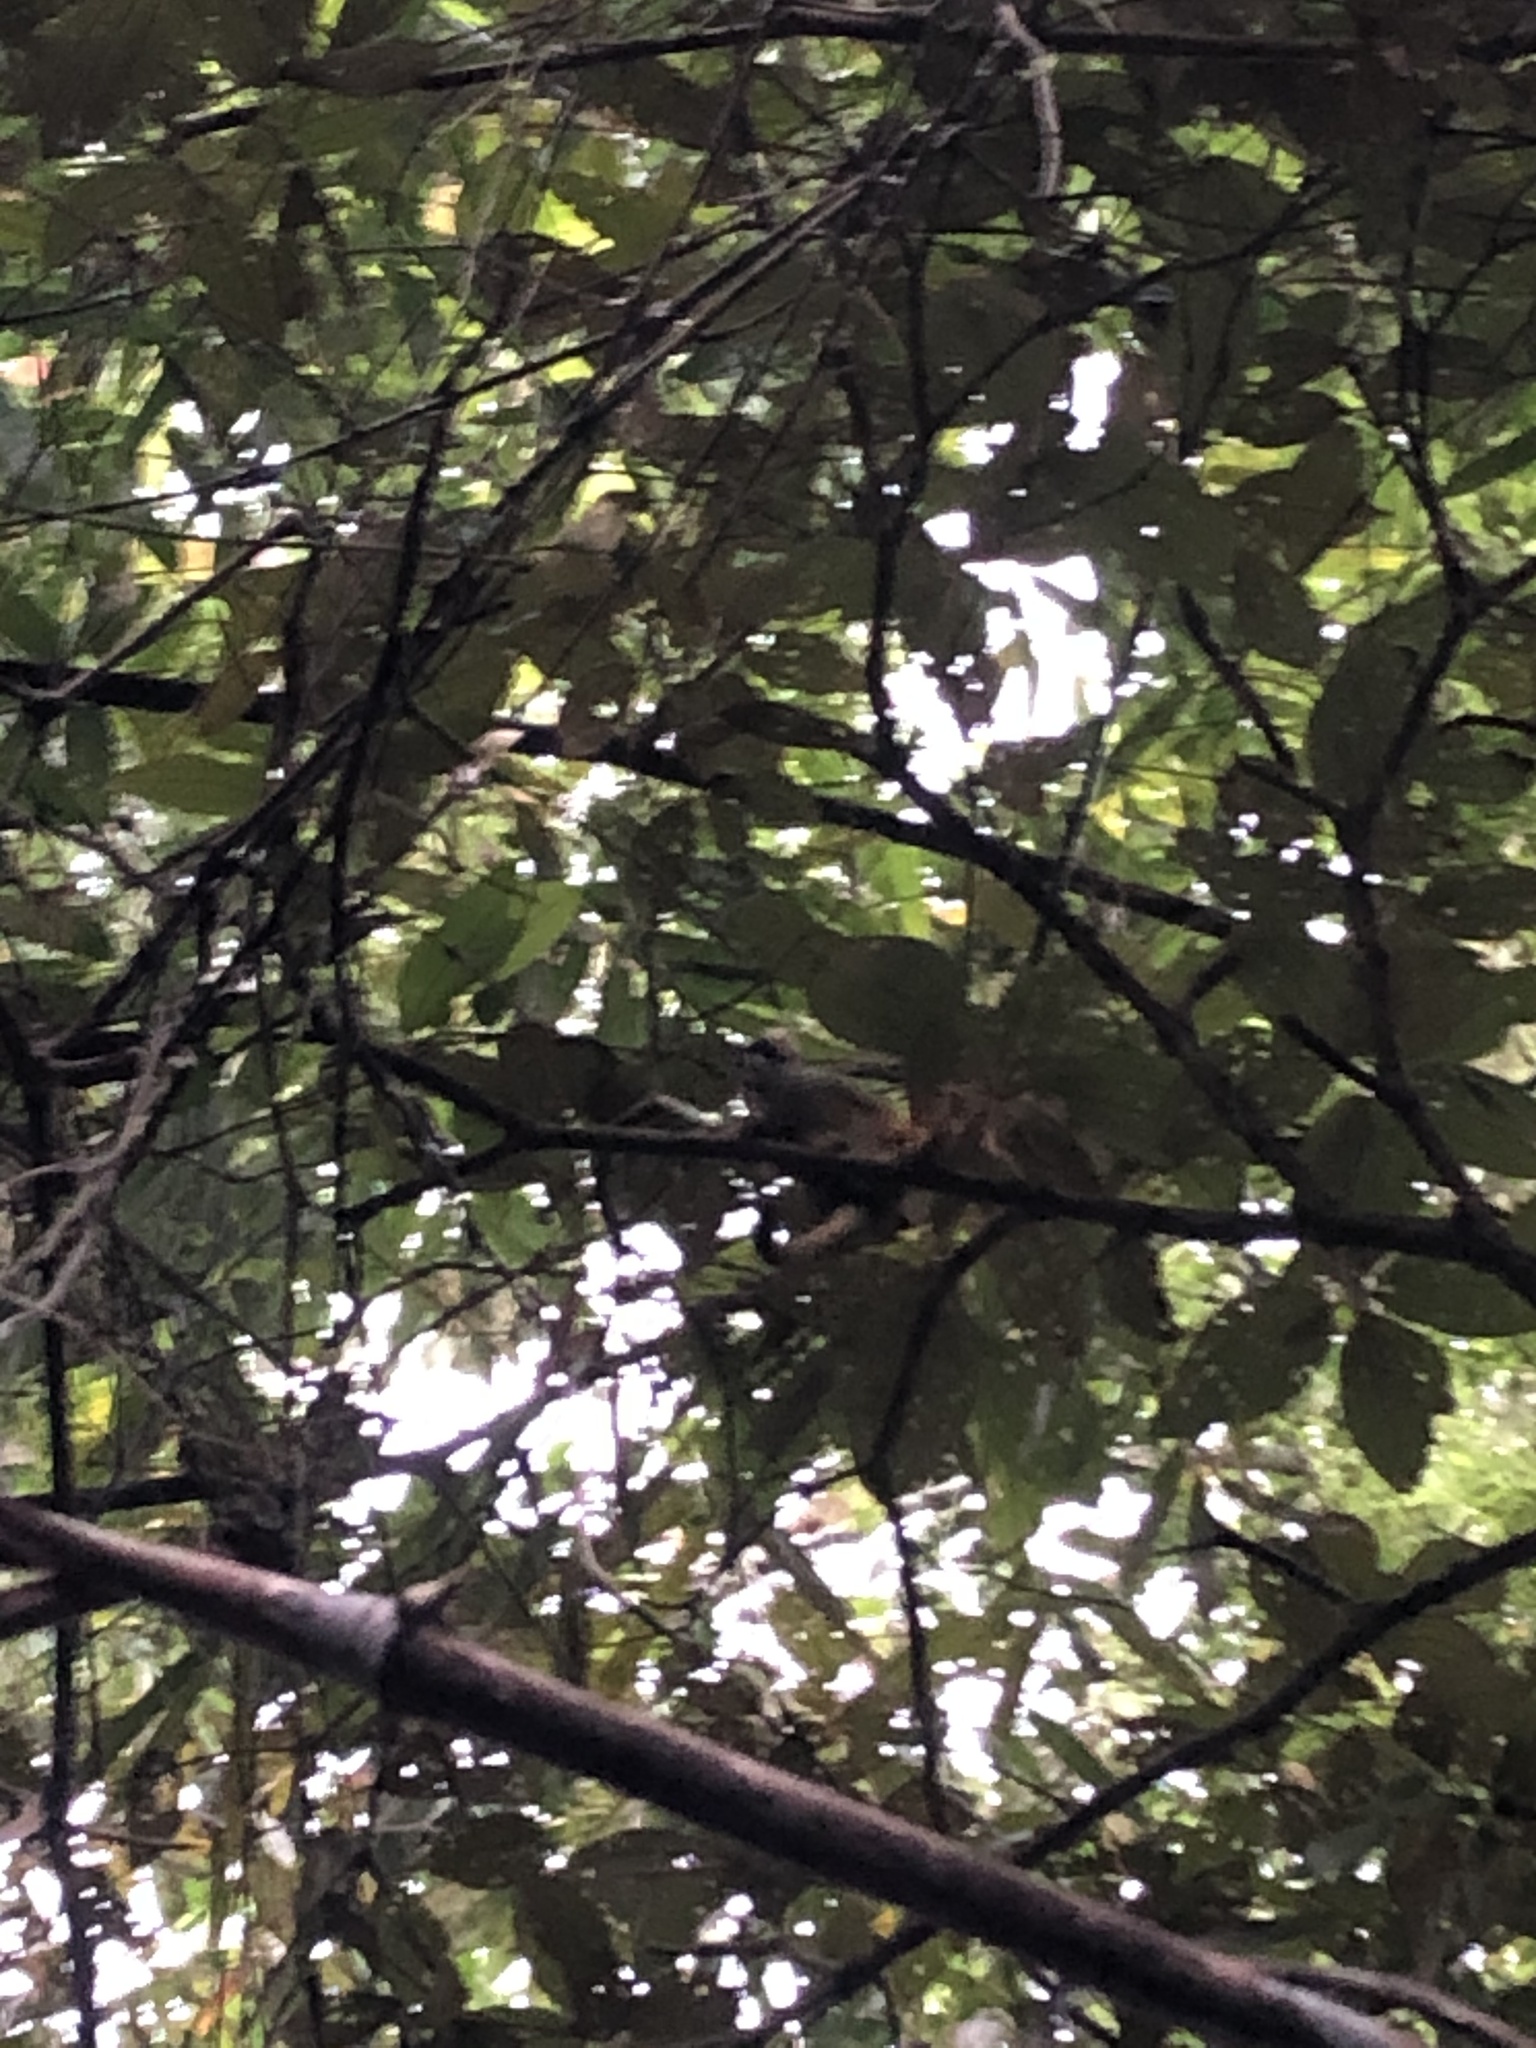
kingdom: Animalia
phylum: Chordata
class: Mammalia
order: Primates
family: Cebidae
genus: Saimiri
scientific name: Saimiri boliviensis
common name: Black-capped squirrel monkey
